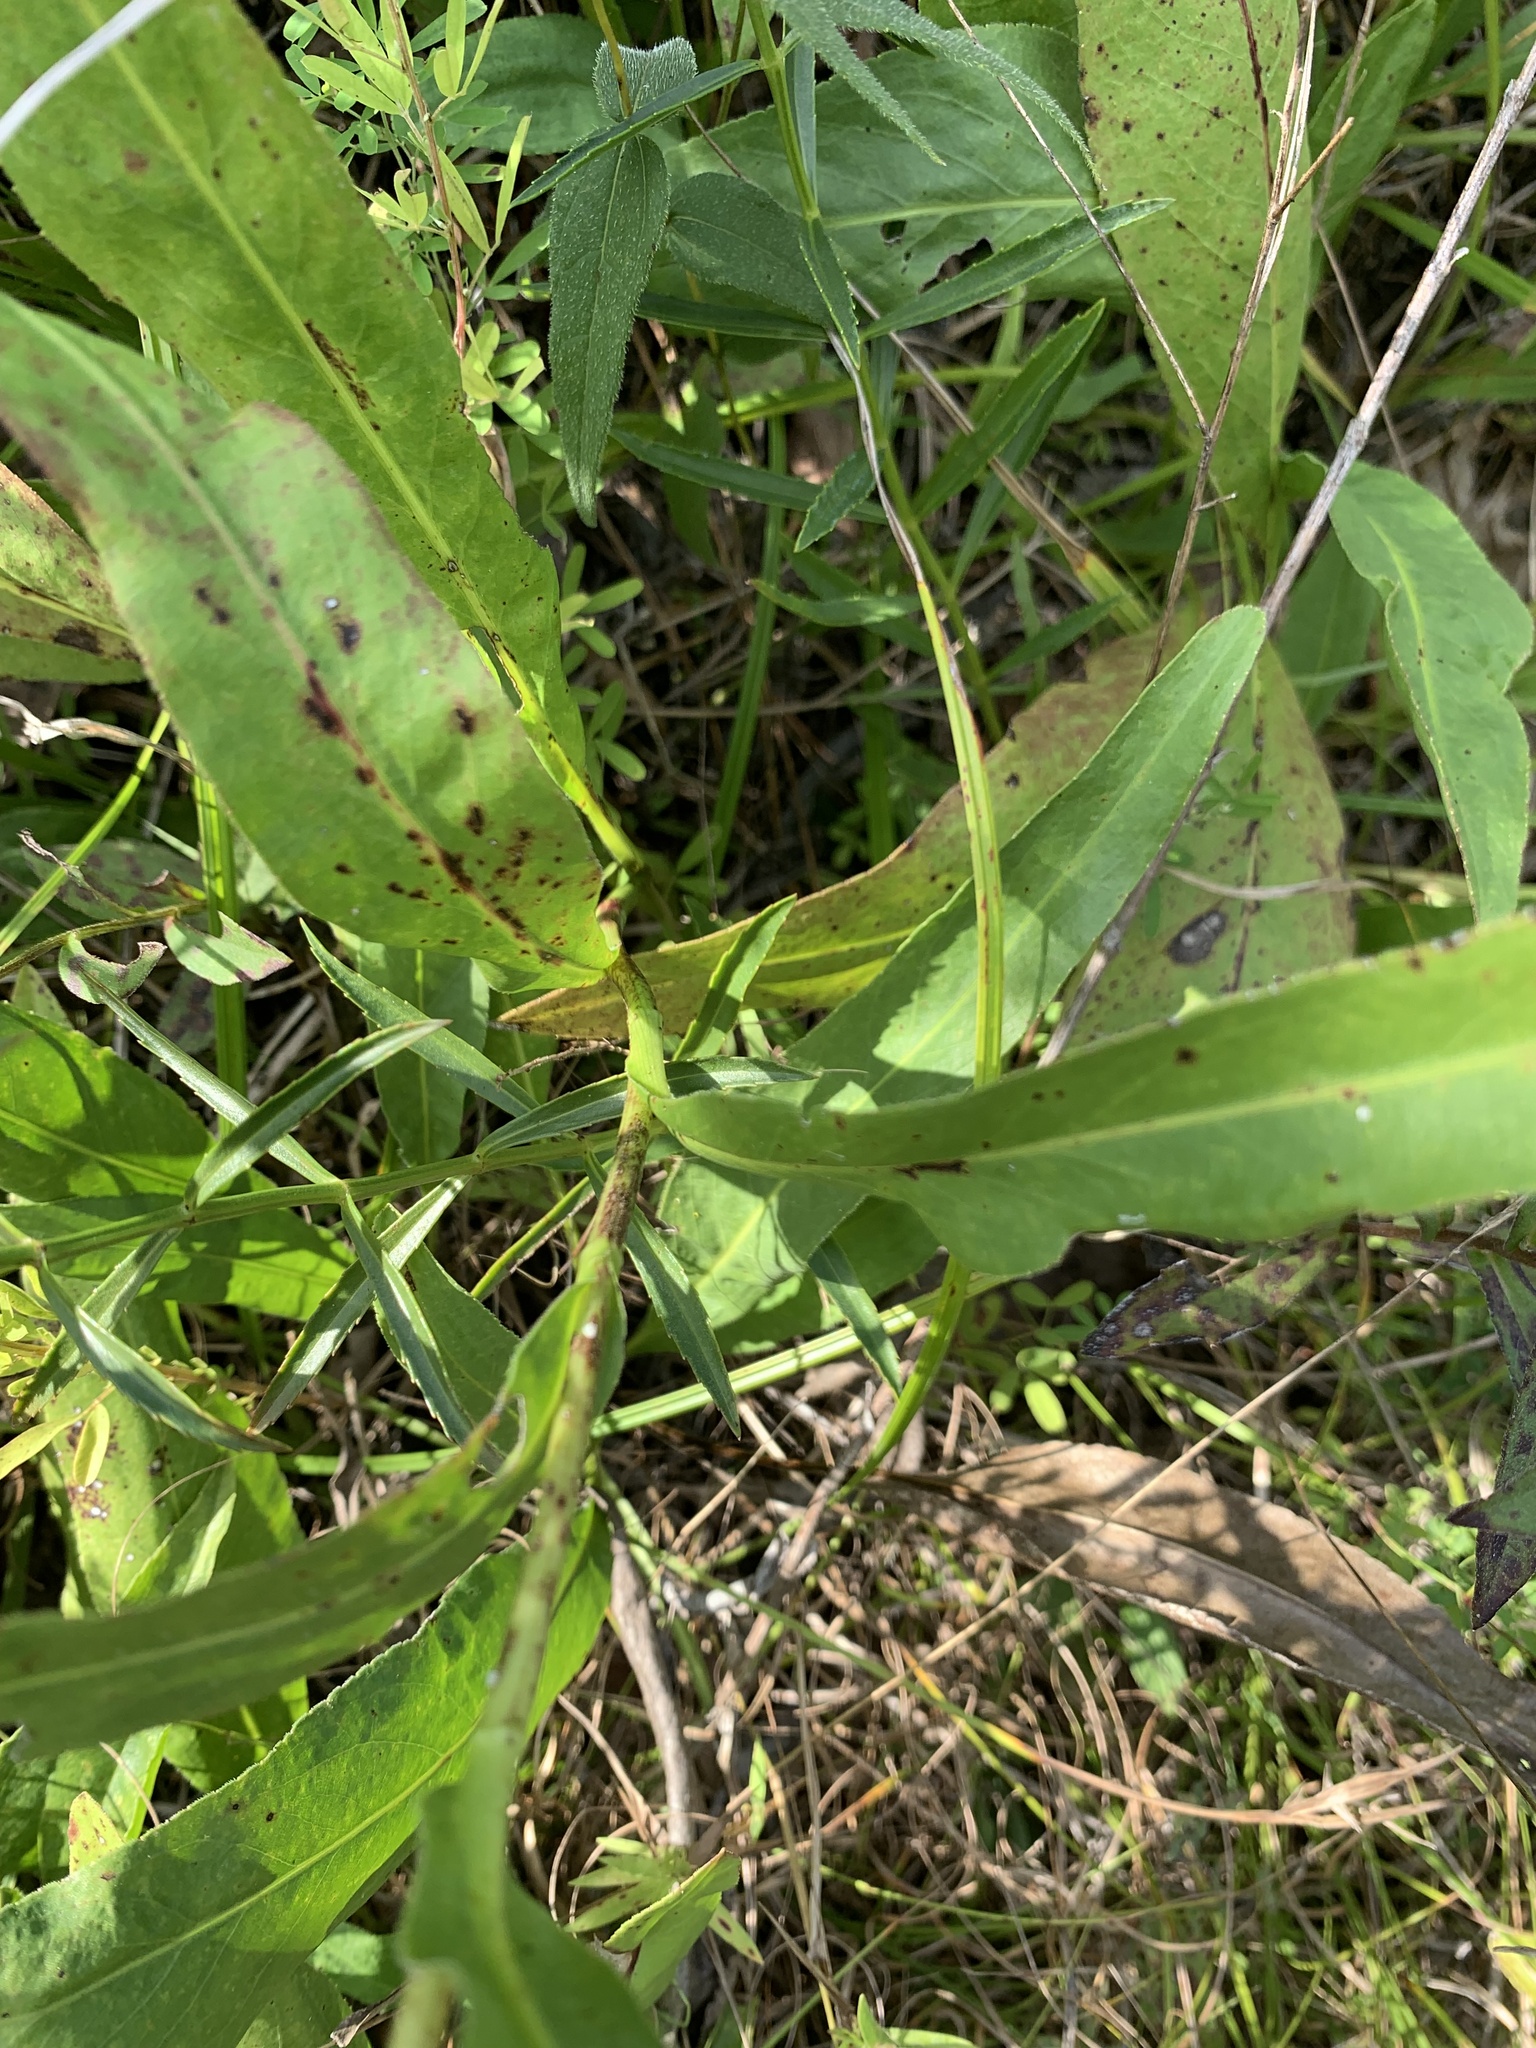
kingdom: Plantae
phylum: Tracheophyta
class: Magnoliopsida
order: Asterales
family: Asteraceae
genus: Solidago
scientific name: Solidago rigida
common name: Rigid goldenrod
